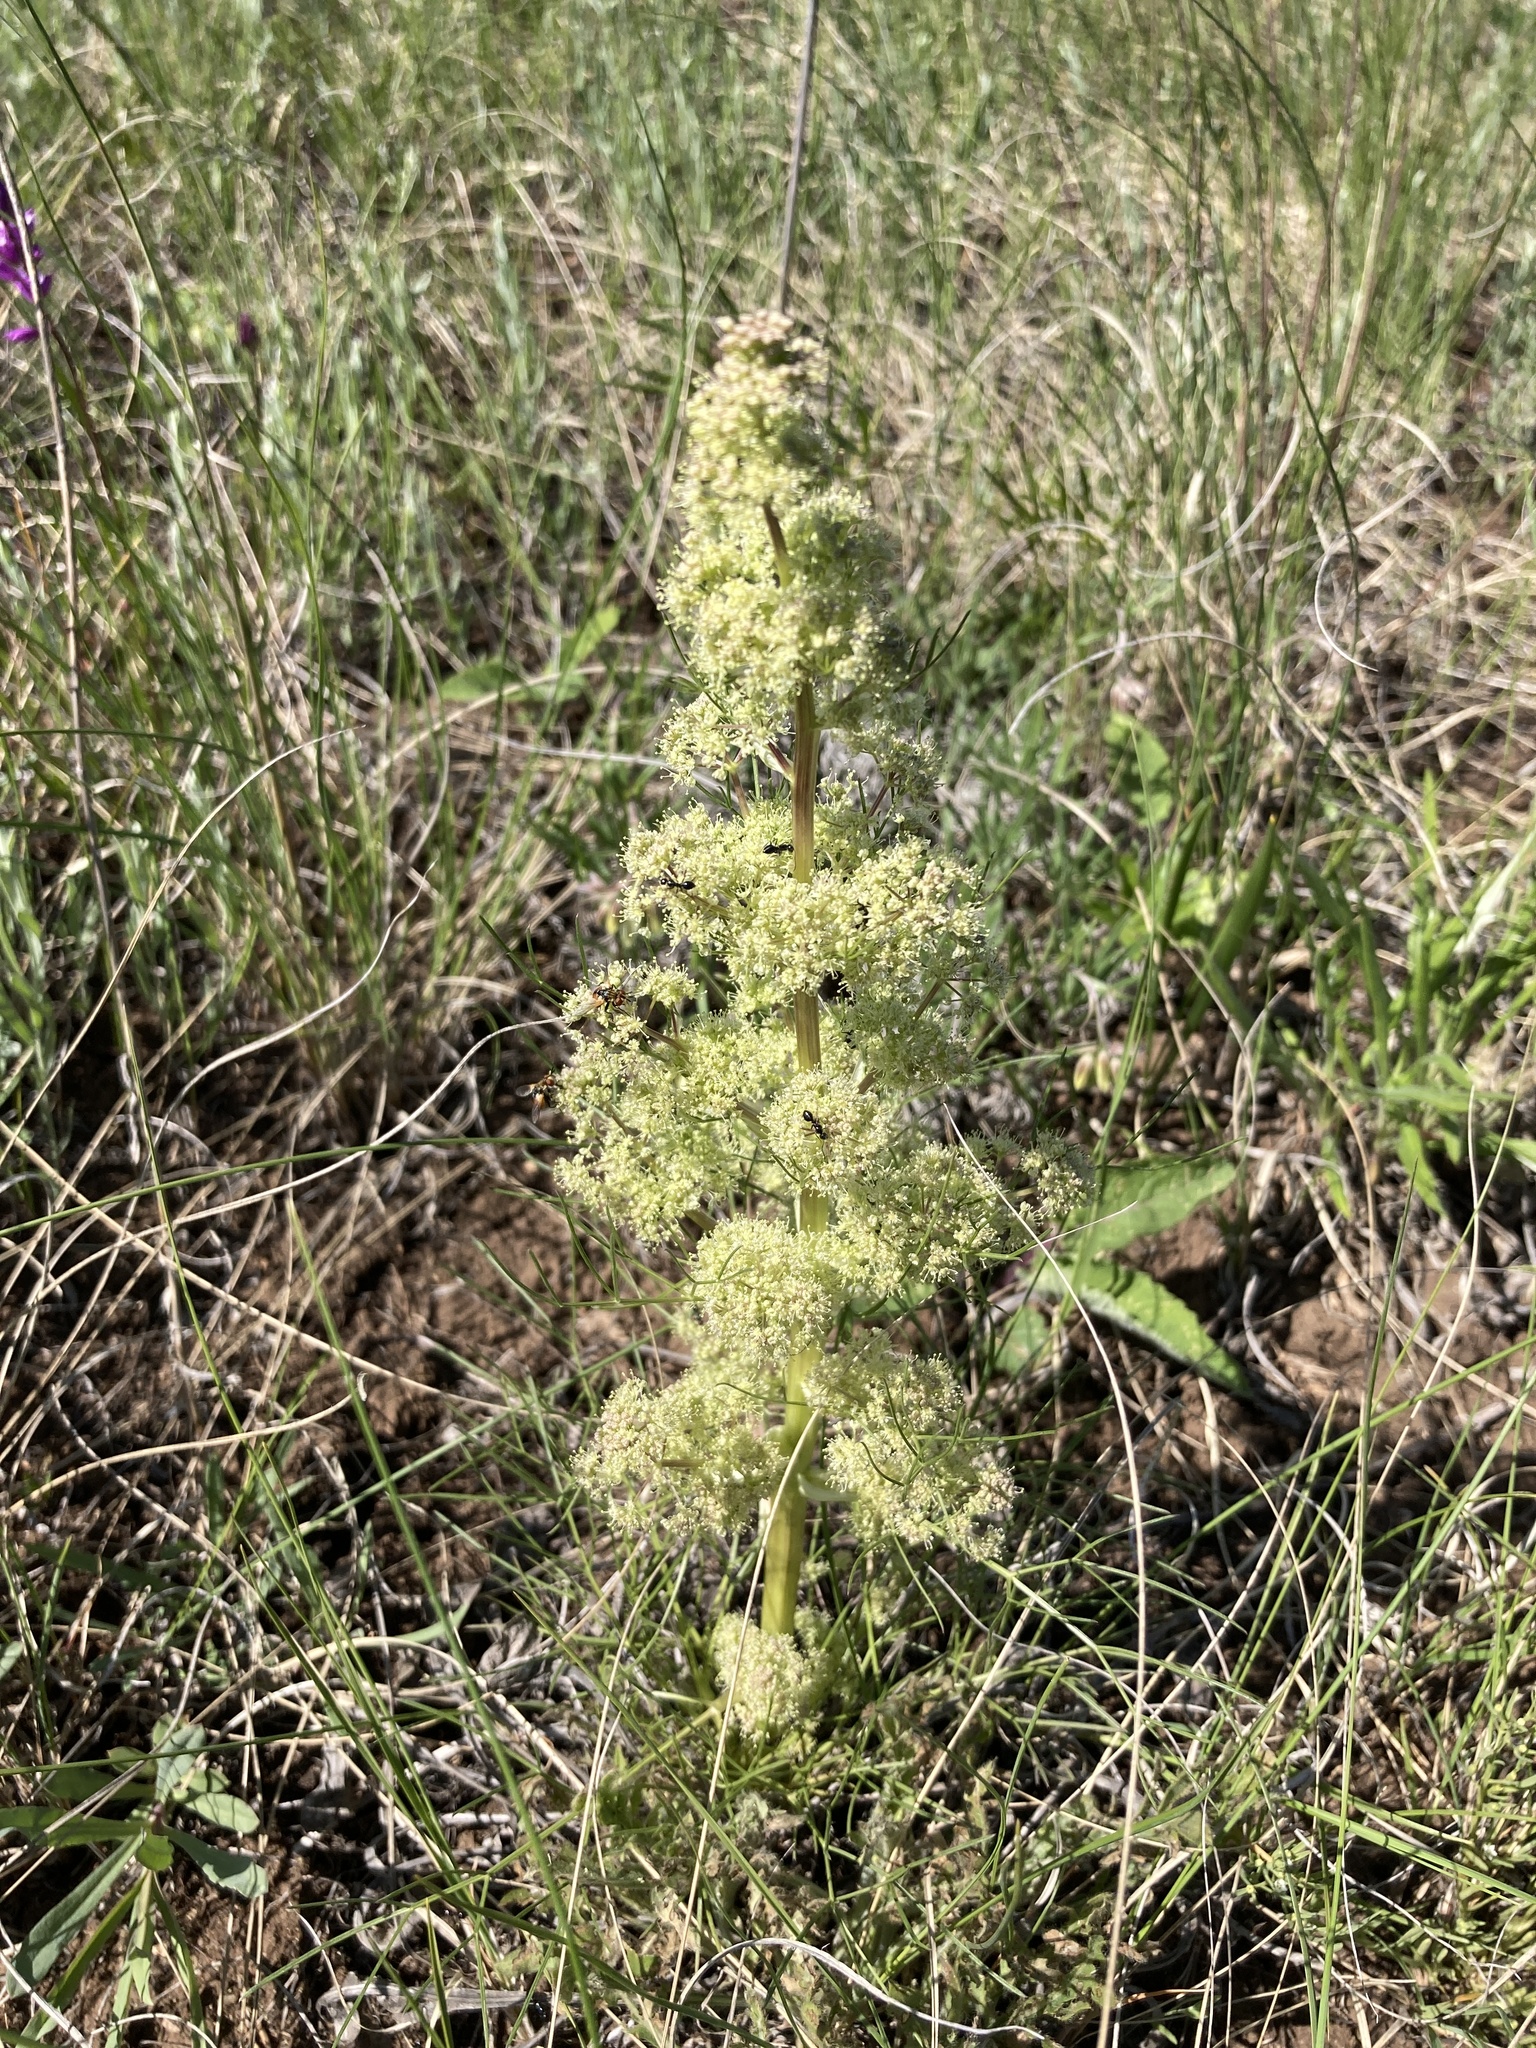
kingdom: Plantae
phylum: Tracheophyta
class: Magnoliopsida
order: Apiales
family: Apiaceae
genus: Trinia
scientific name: Trinia multicaulis
